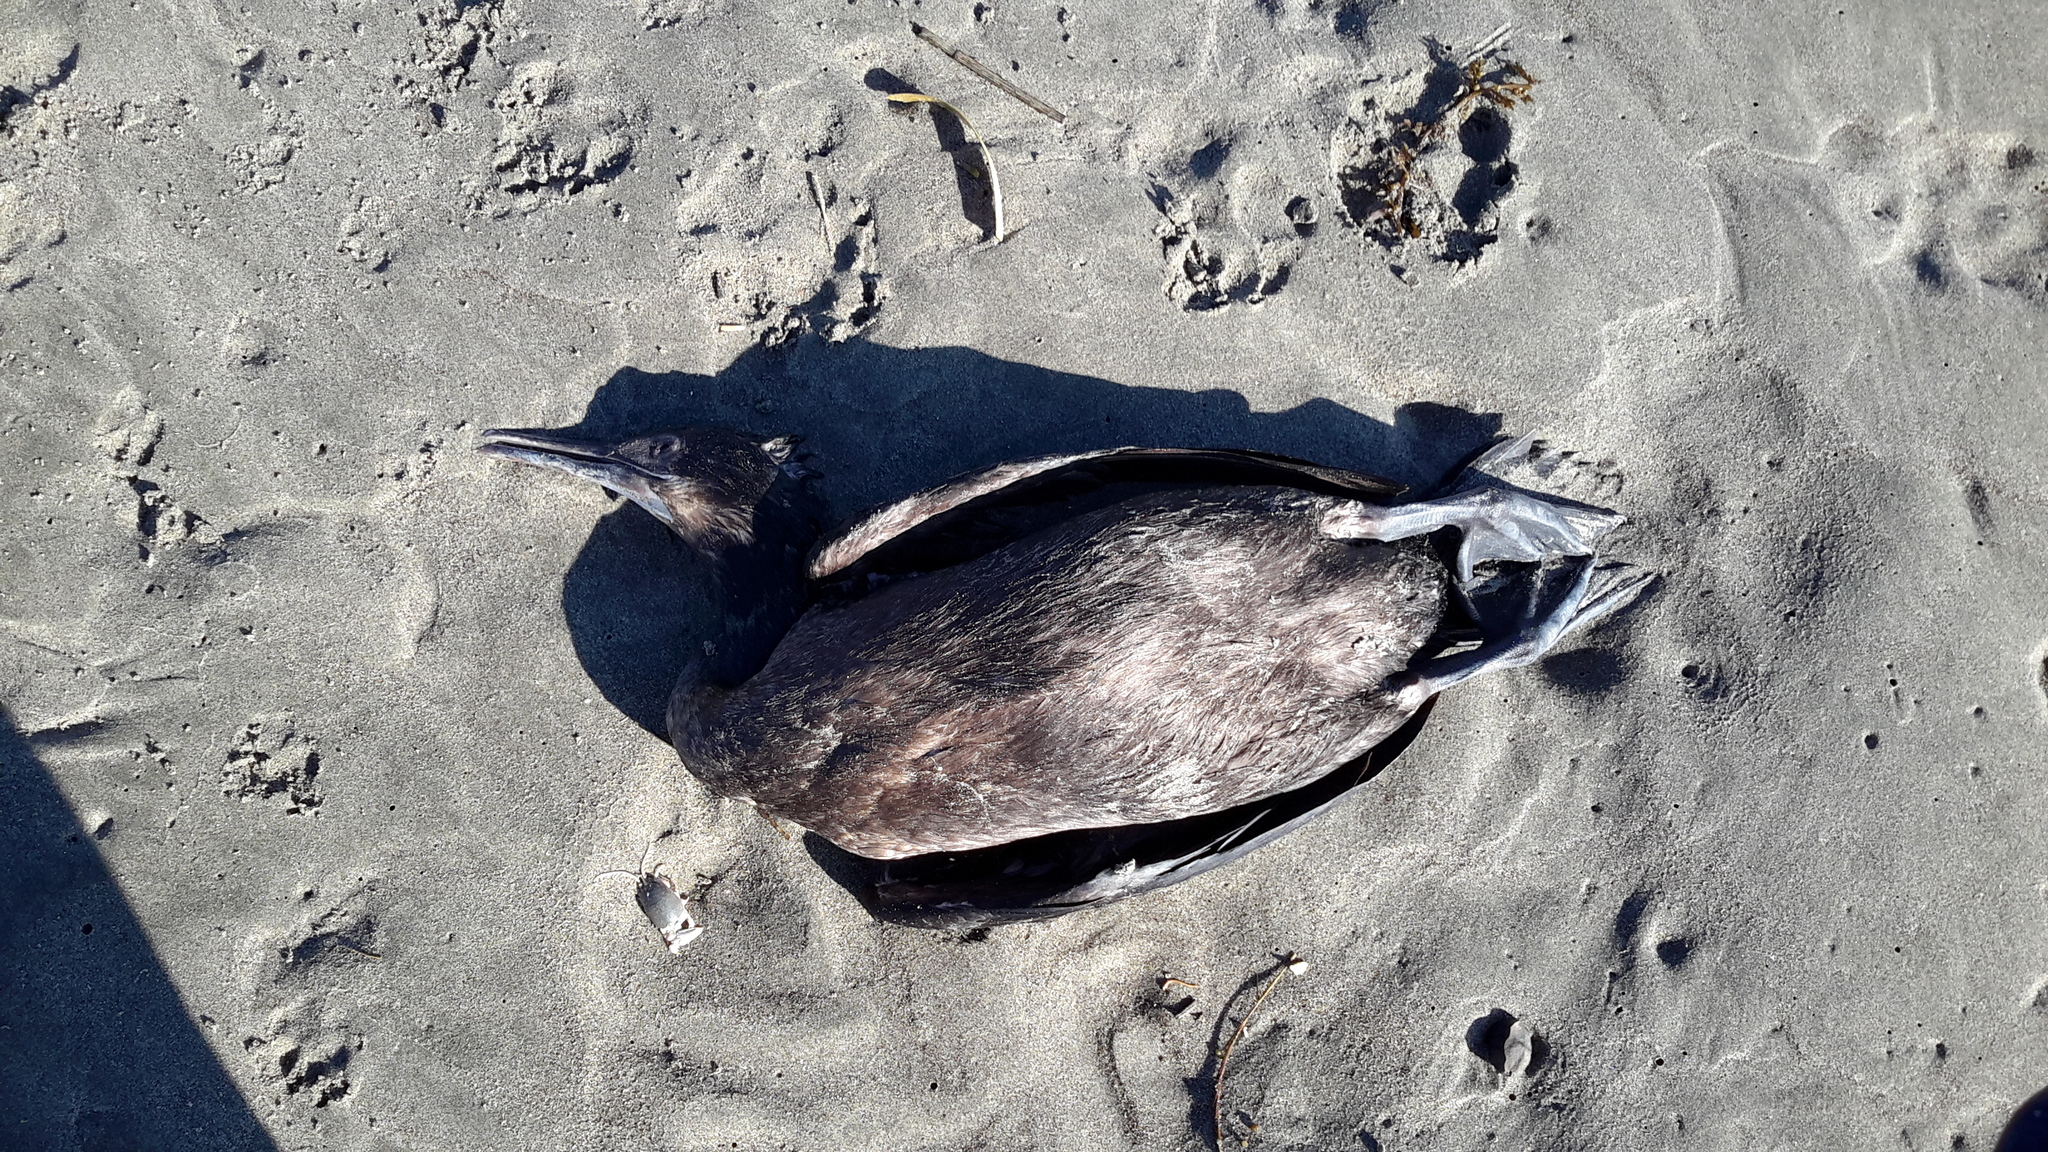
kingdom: Animalia
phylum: Chordata
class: Aves
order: Suliformes
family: Phalacrocoracidae
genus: Urile
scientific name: Urile penicillatus
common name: Brandt's cormorant
